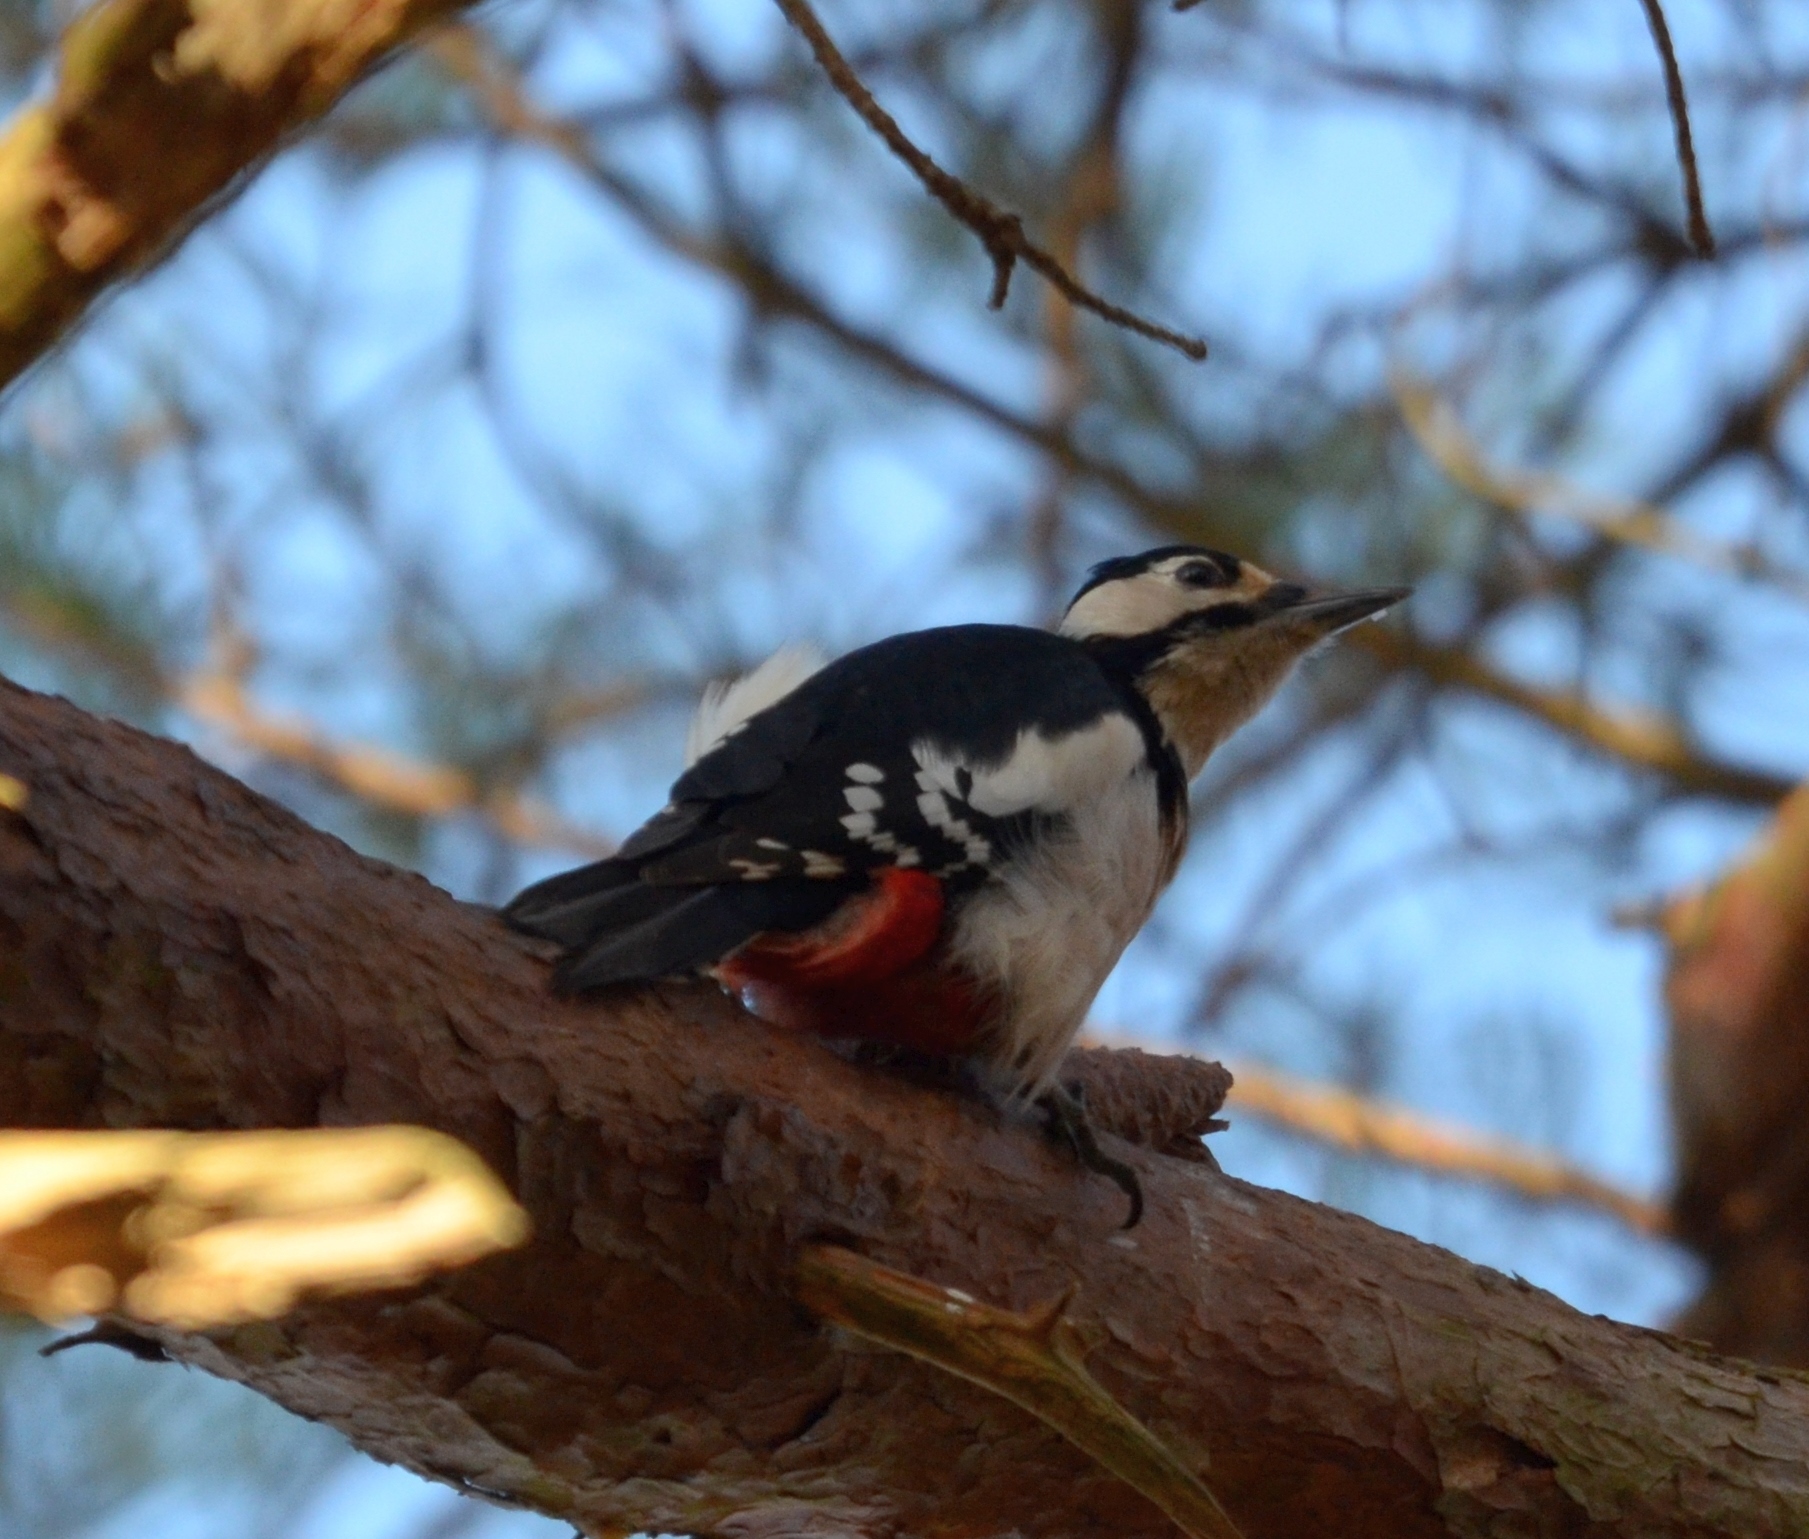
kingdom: Animalia
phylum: Chordata
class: Aves
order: Piciformes
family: Picidae
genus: Dendrocopos
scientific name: Dendrocopos major
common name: Great spotted woodpecker
